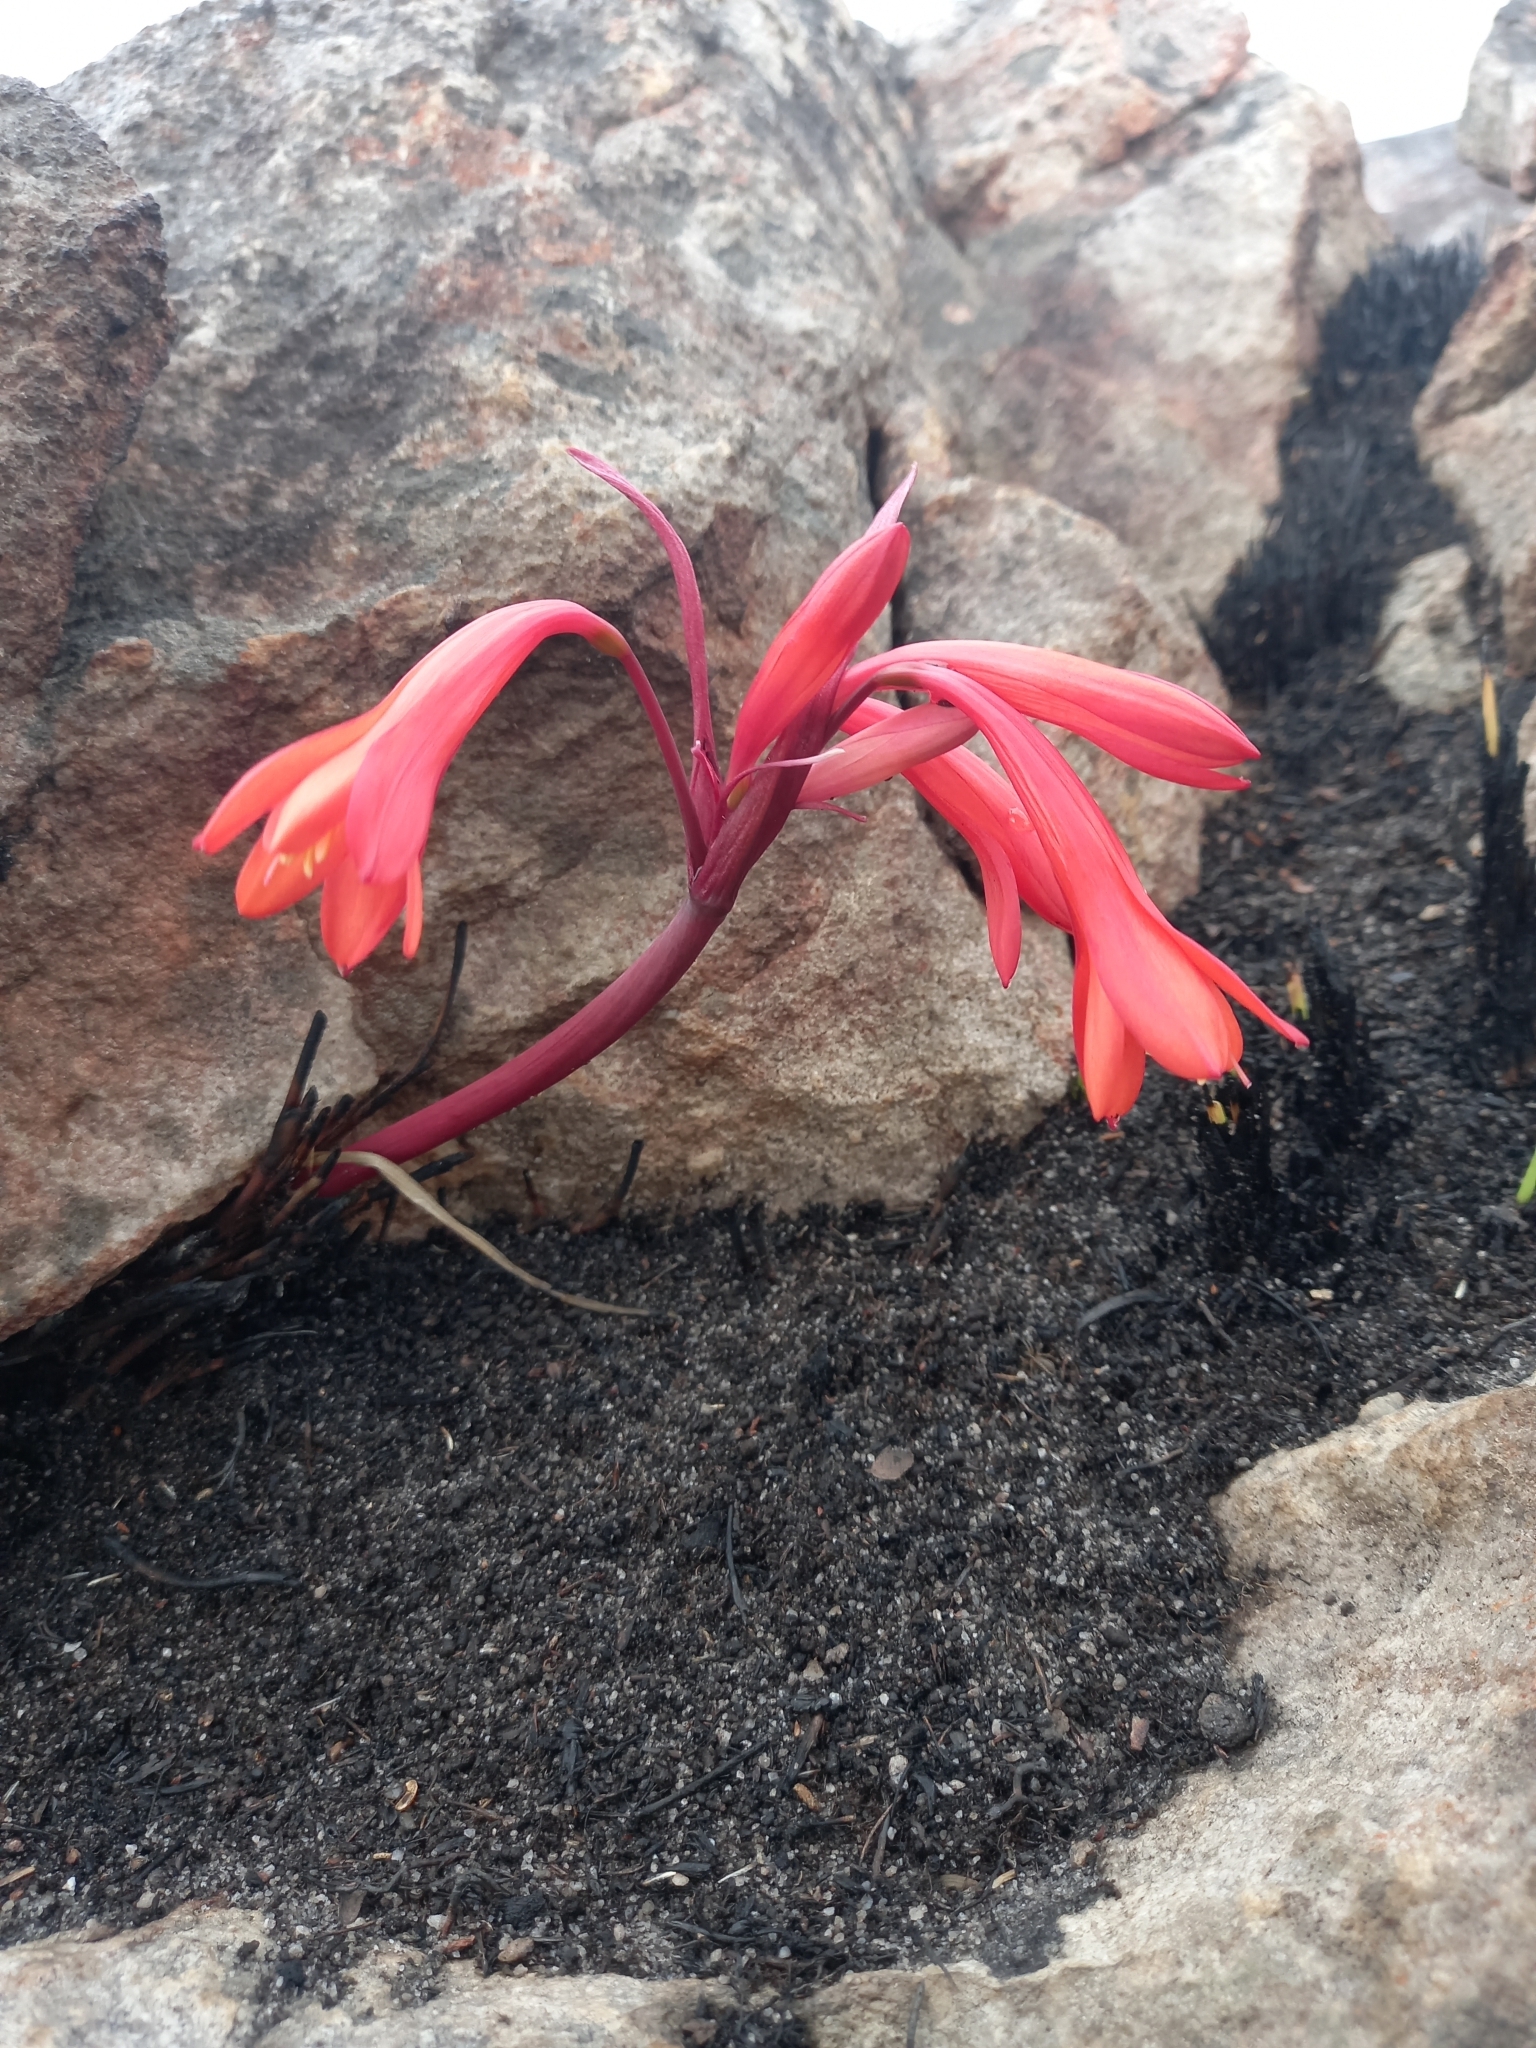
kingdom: Plantae
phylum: Tracheophyta
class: Liliopsida
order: Asparagales
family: Amaryllidaceae
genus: Cyrtanthus
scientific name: Cyrtanthus ventricosus
